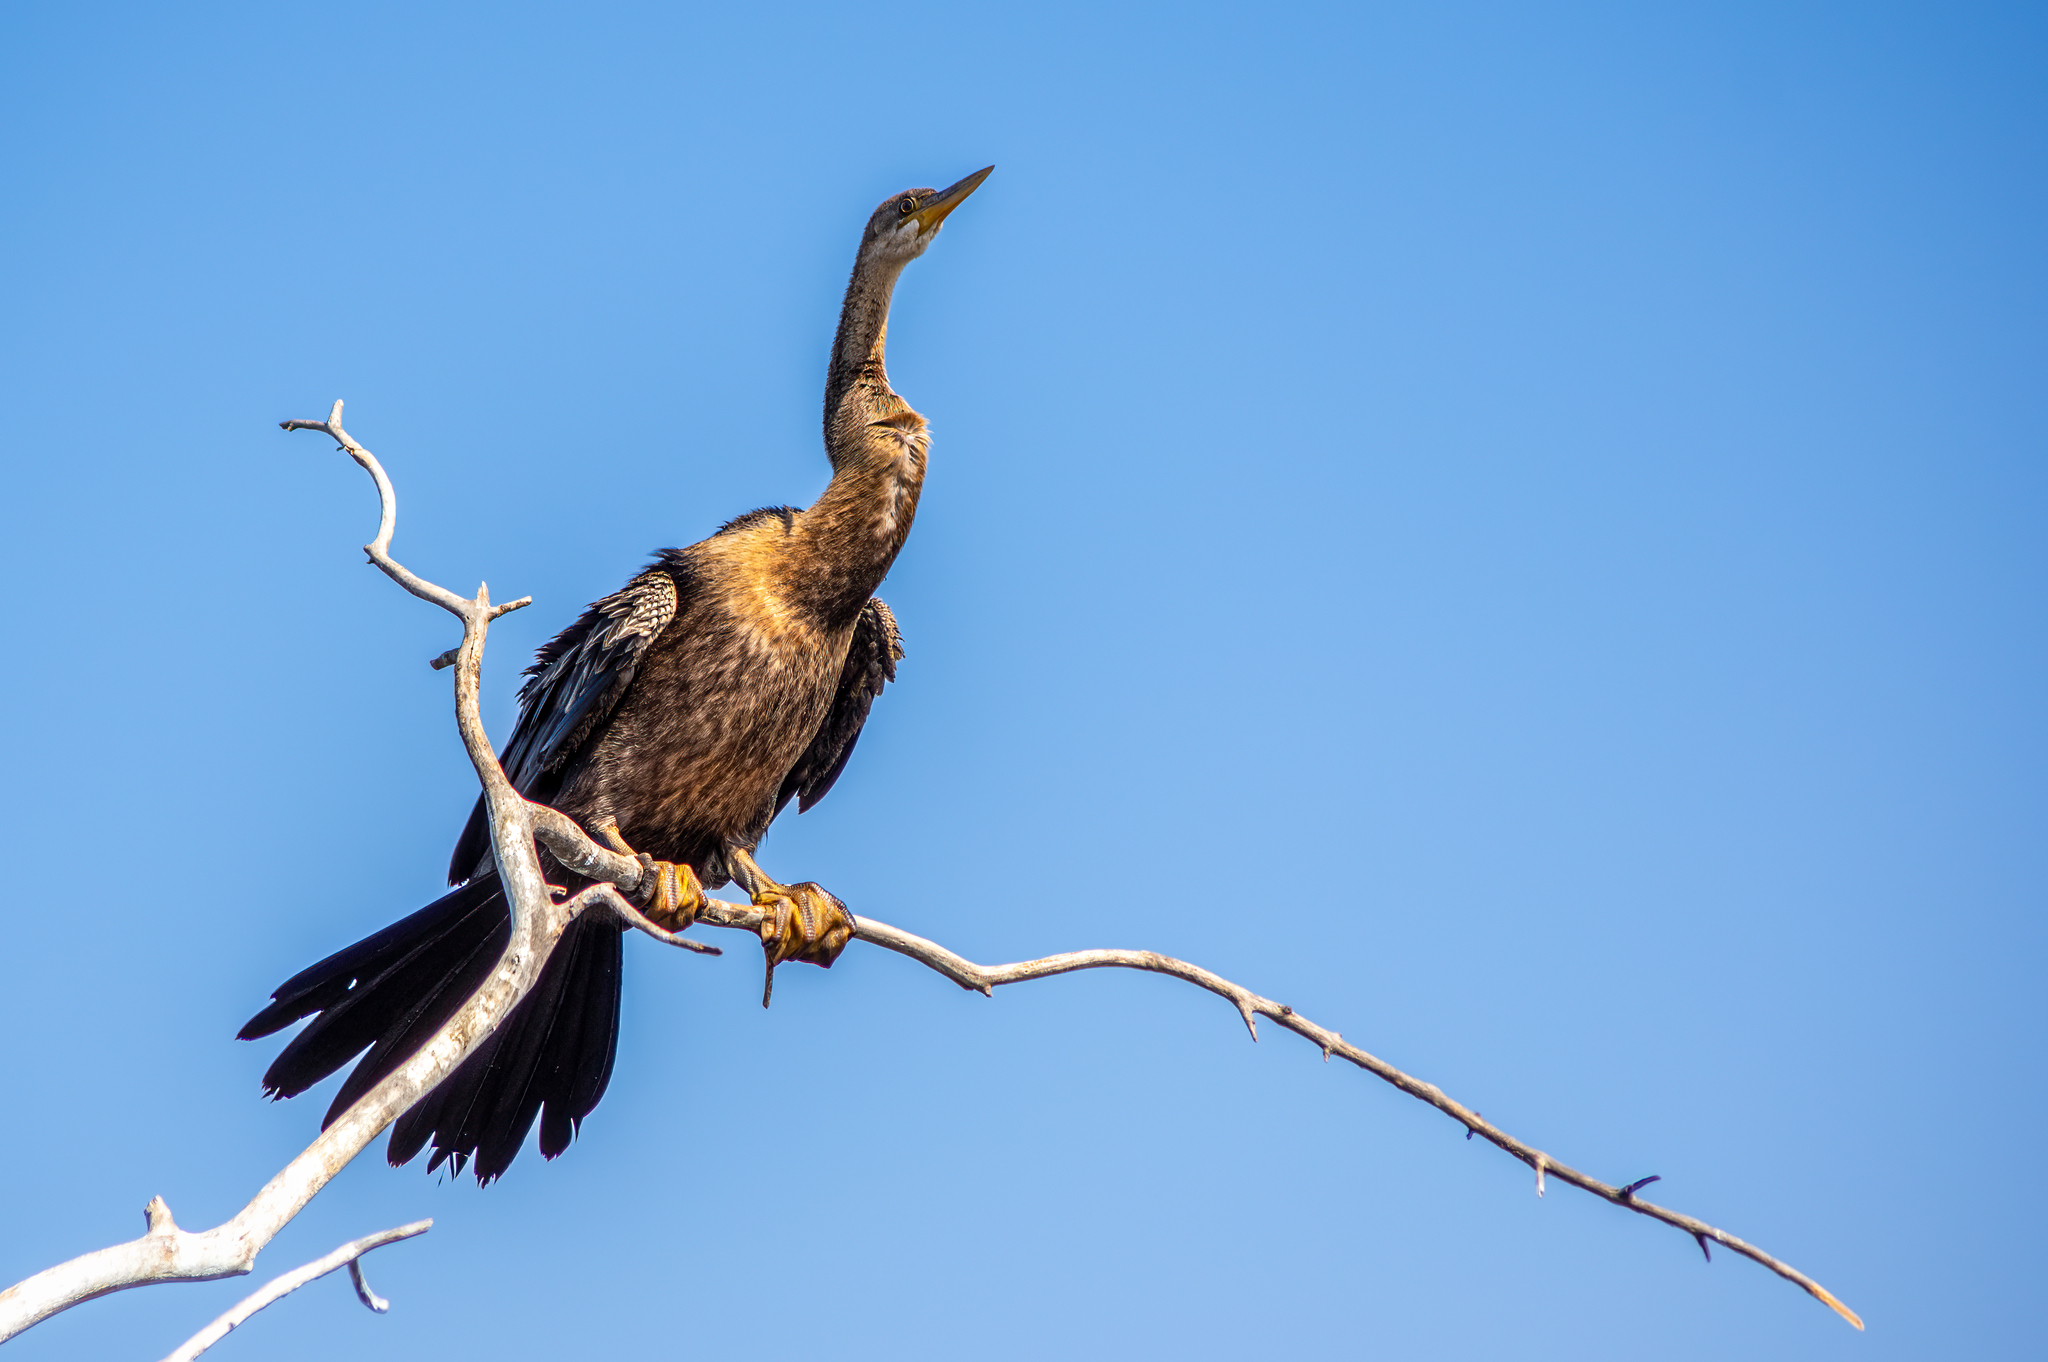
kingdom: Animalia
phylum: Chordata
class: Aves
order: Suliformes
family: Anhingidae
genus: Anhinga
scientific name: Anhinga rufa
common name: African darter
